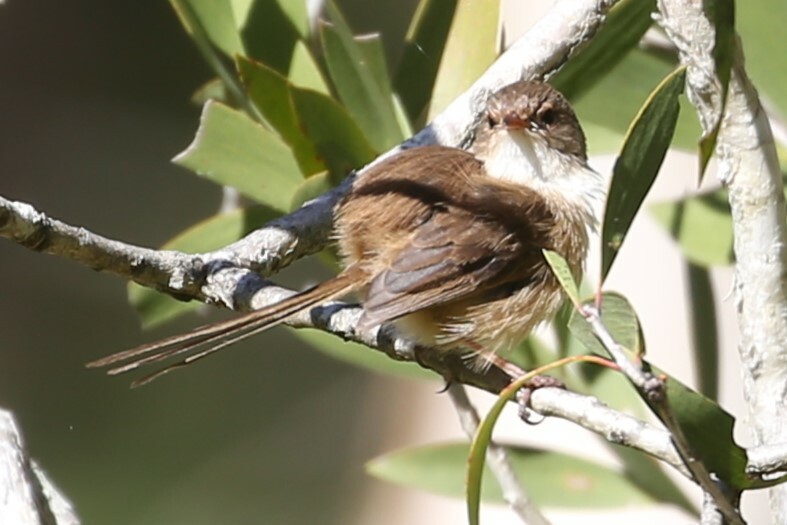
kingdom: Animalia
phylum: Chordata
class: Aves
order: Passeriformes
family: Maluridae
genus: Malurus
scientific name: Malurus melanocephalus
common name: Red-backed fairywren
